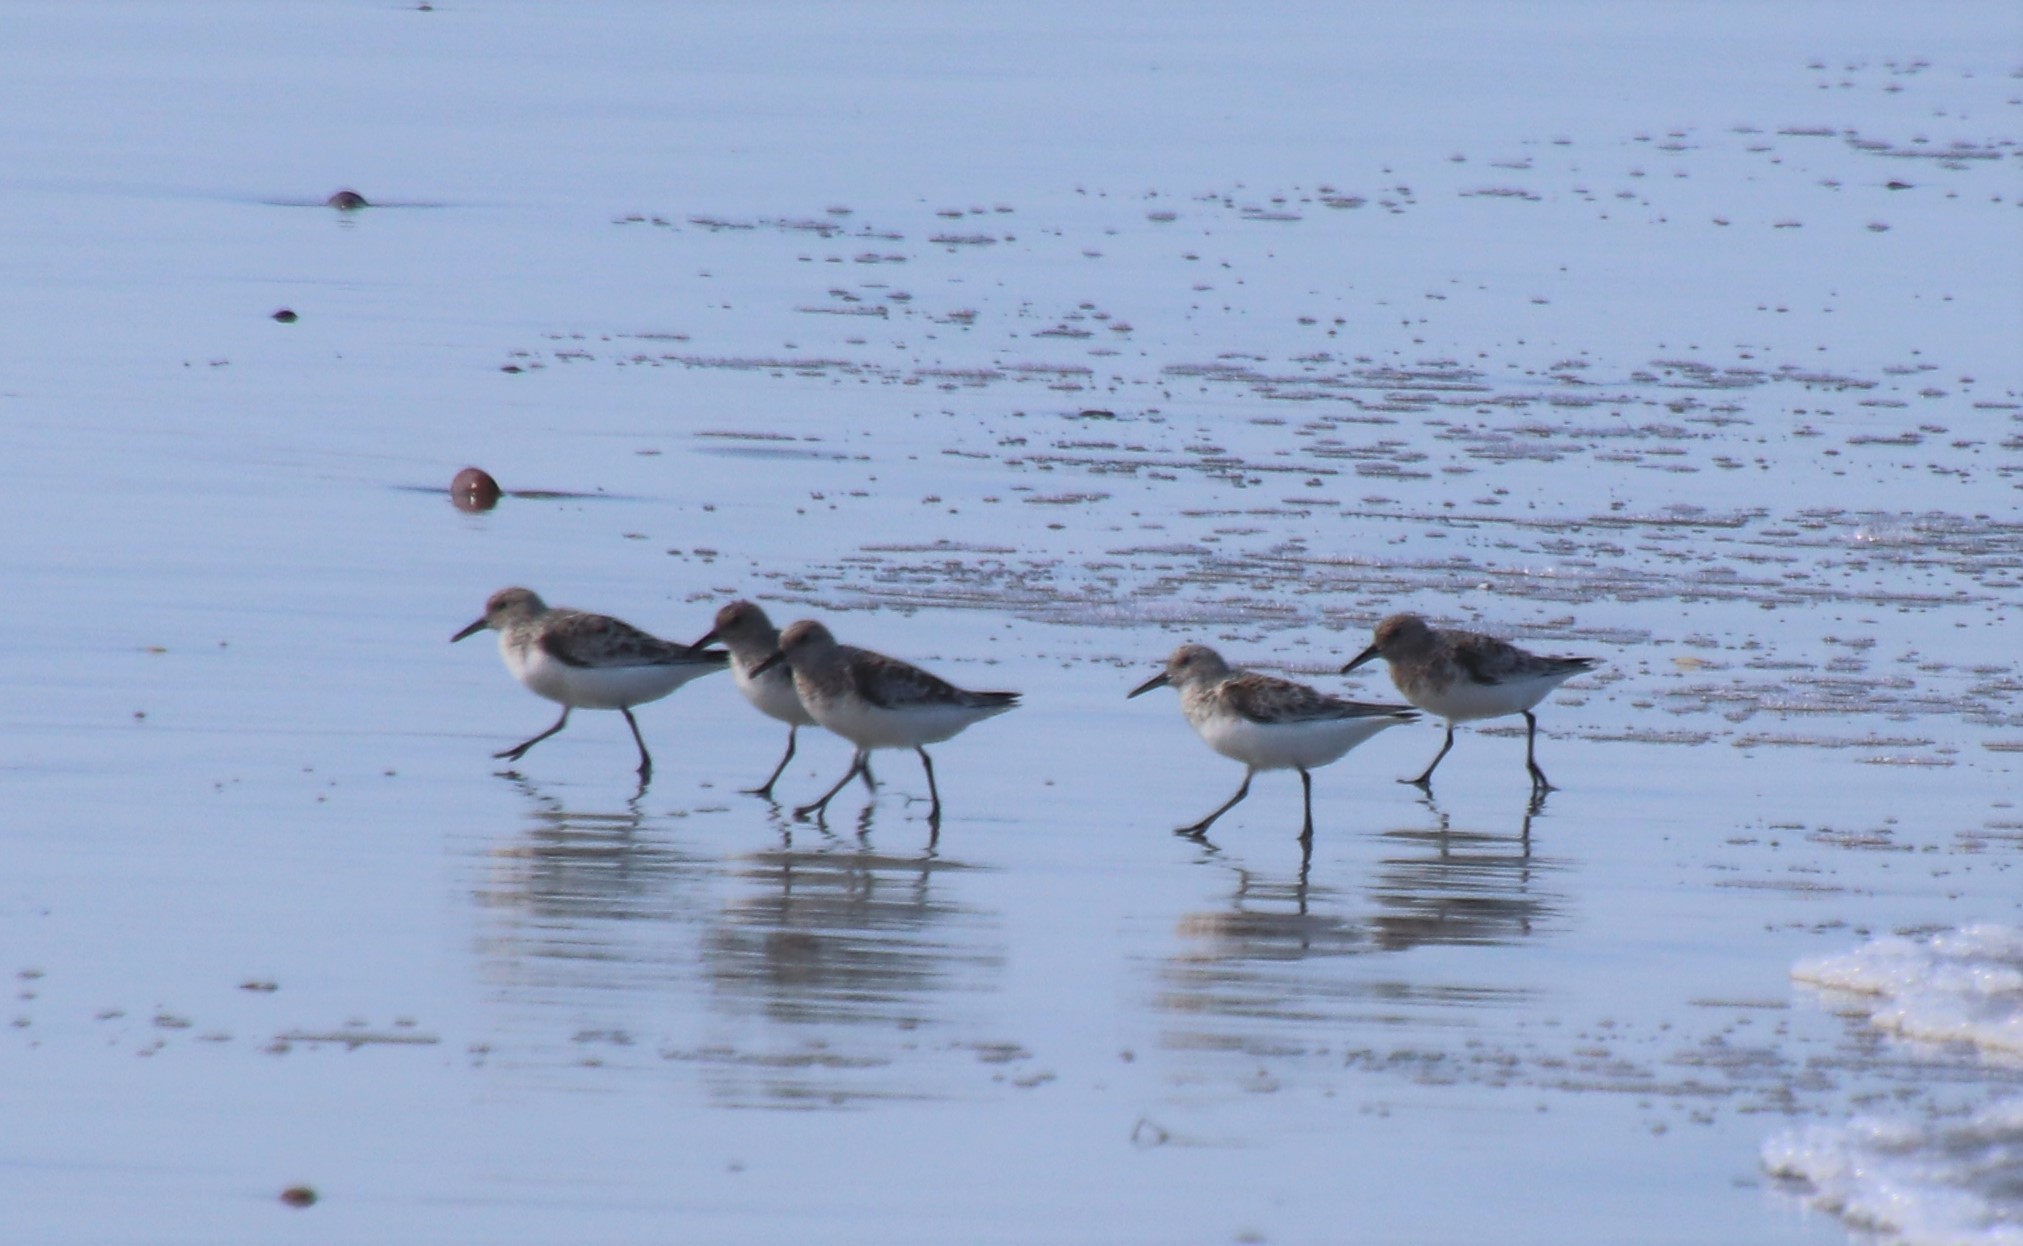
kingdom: Animalia
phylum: Chordata
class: Aves
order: Charadriiformes
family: Scolopacidae
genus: Calidris
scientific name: Calidris alba
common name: Sanderling
